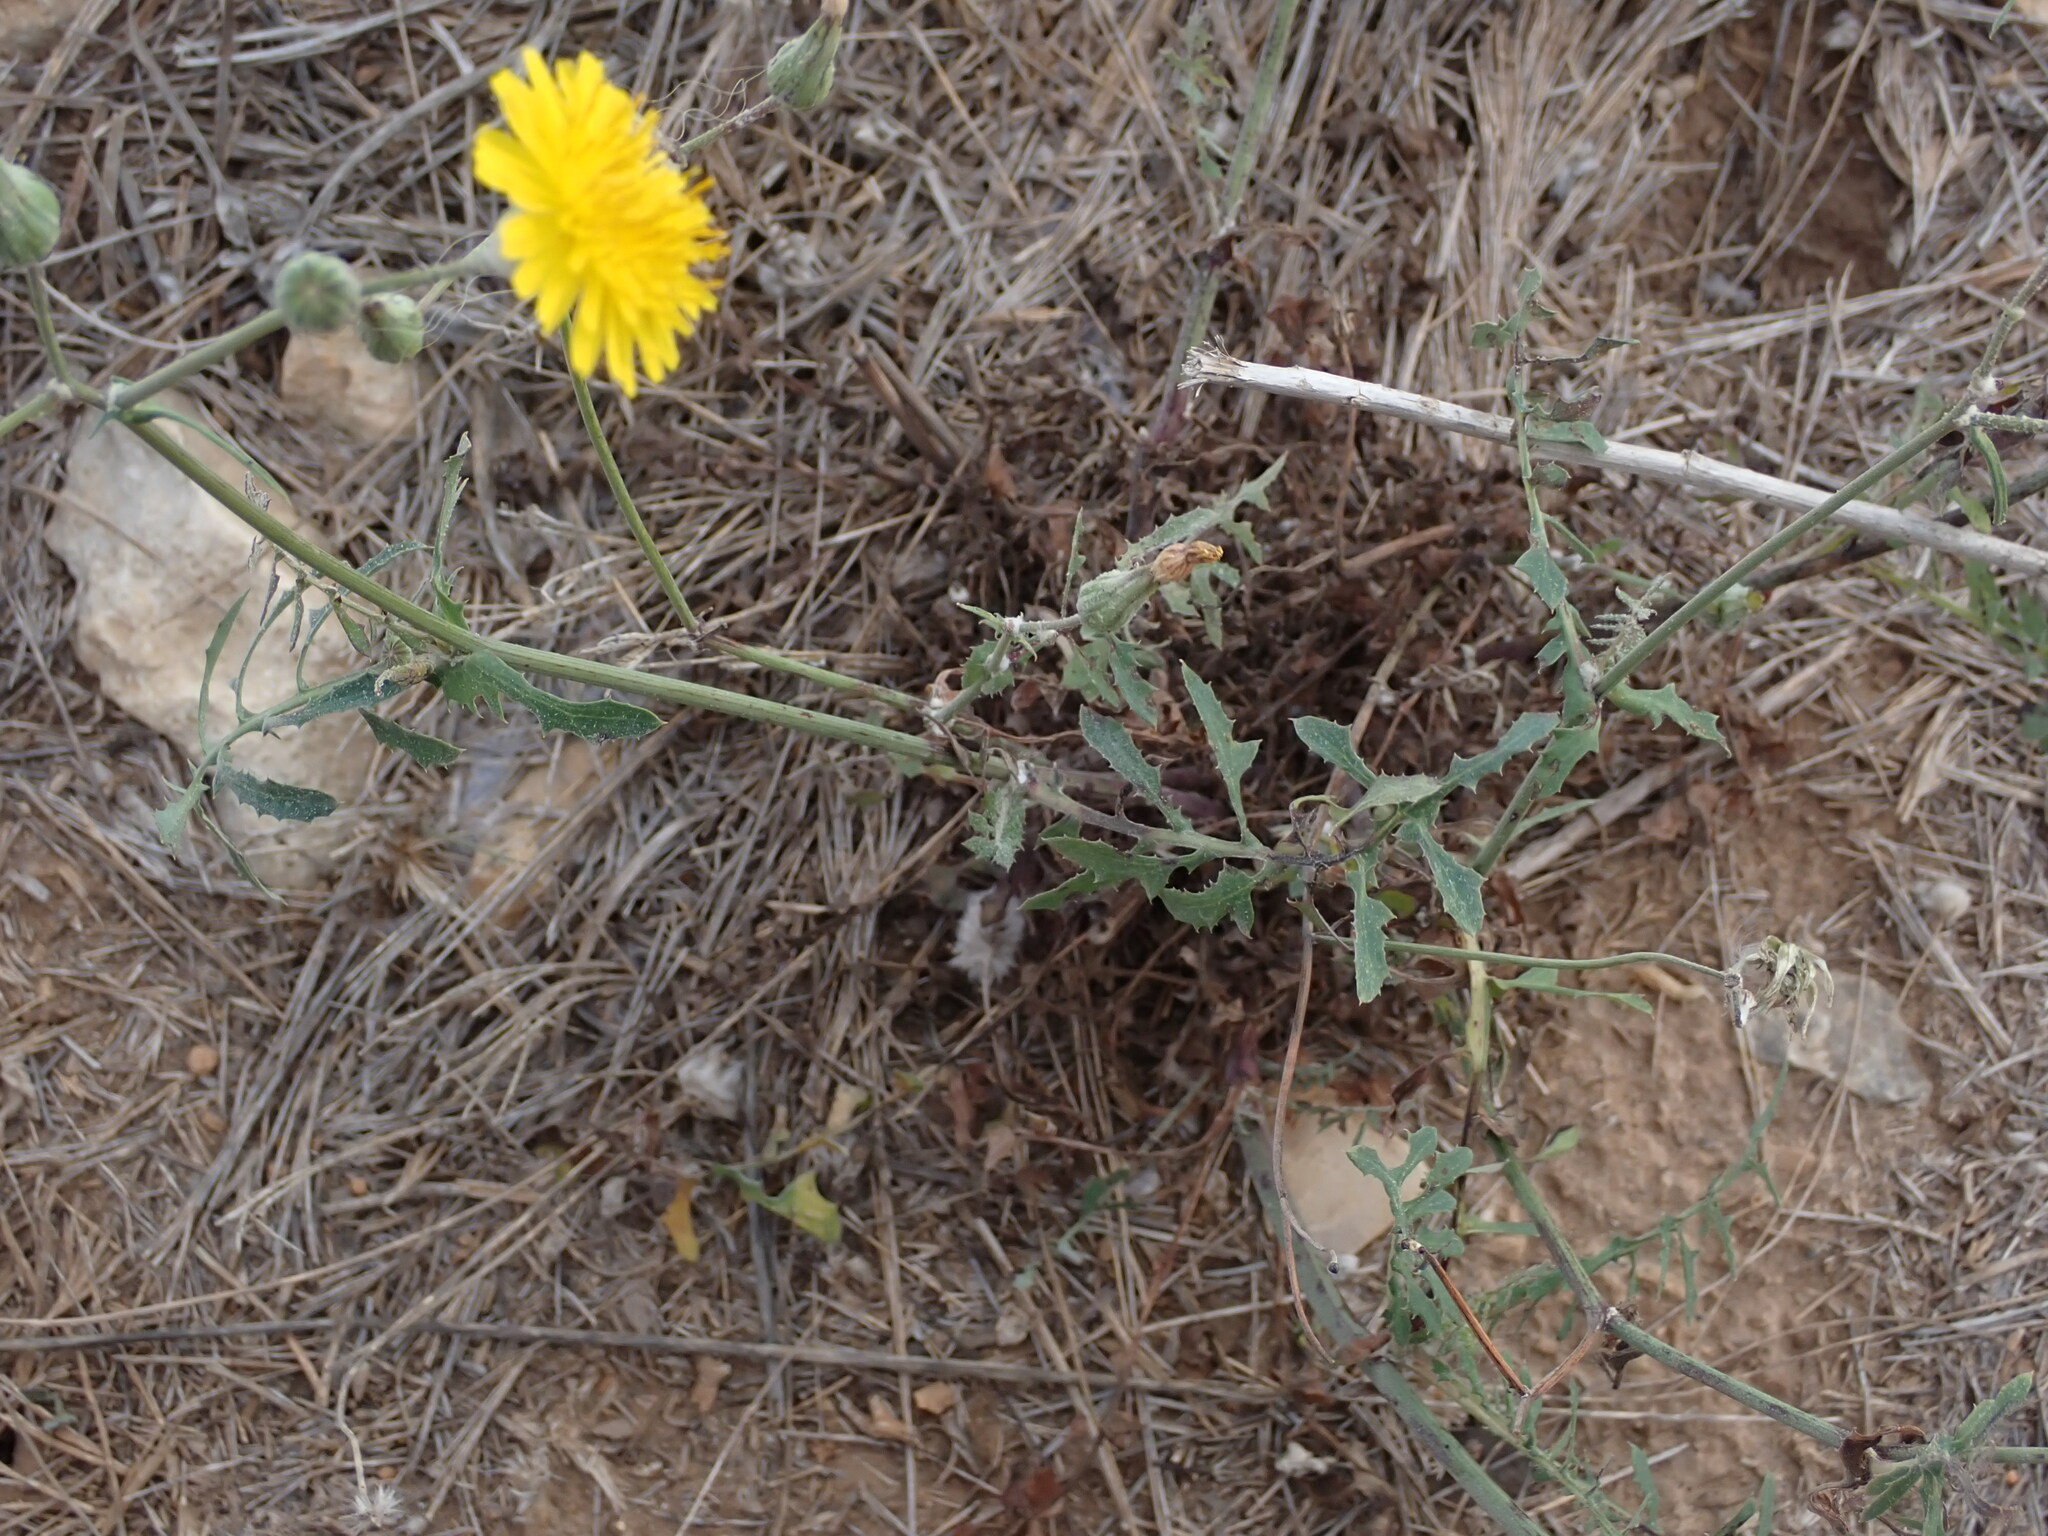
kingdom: Plantae
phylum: Tracheophyta
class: Magnoliopsida
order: Asterales
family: Asteraceae
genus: Sonchus
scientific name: Sonchus tenerrimus
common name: Clammy sowthistle
